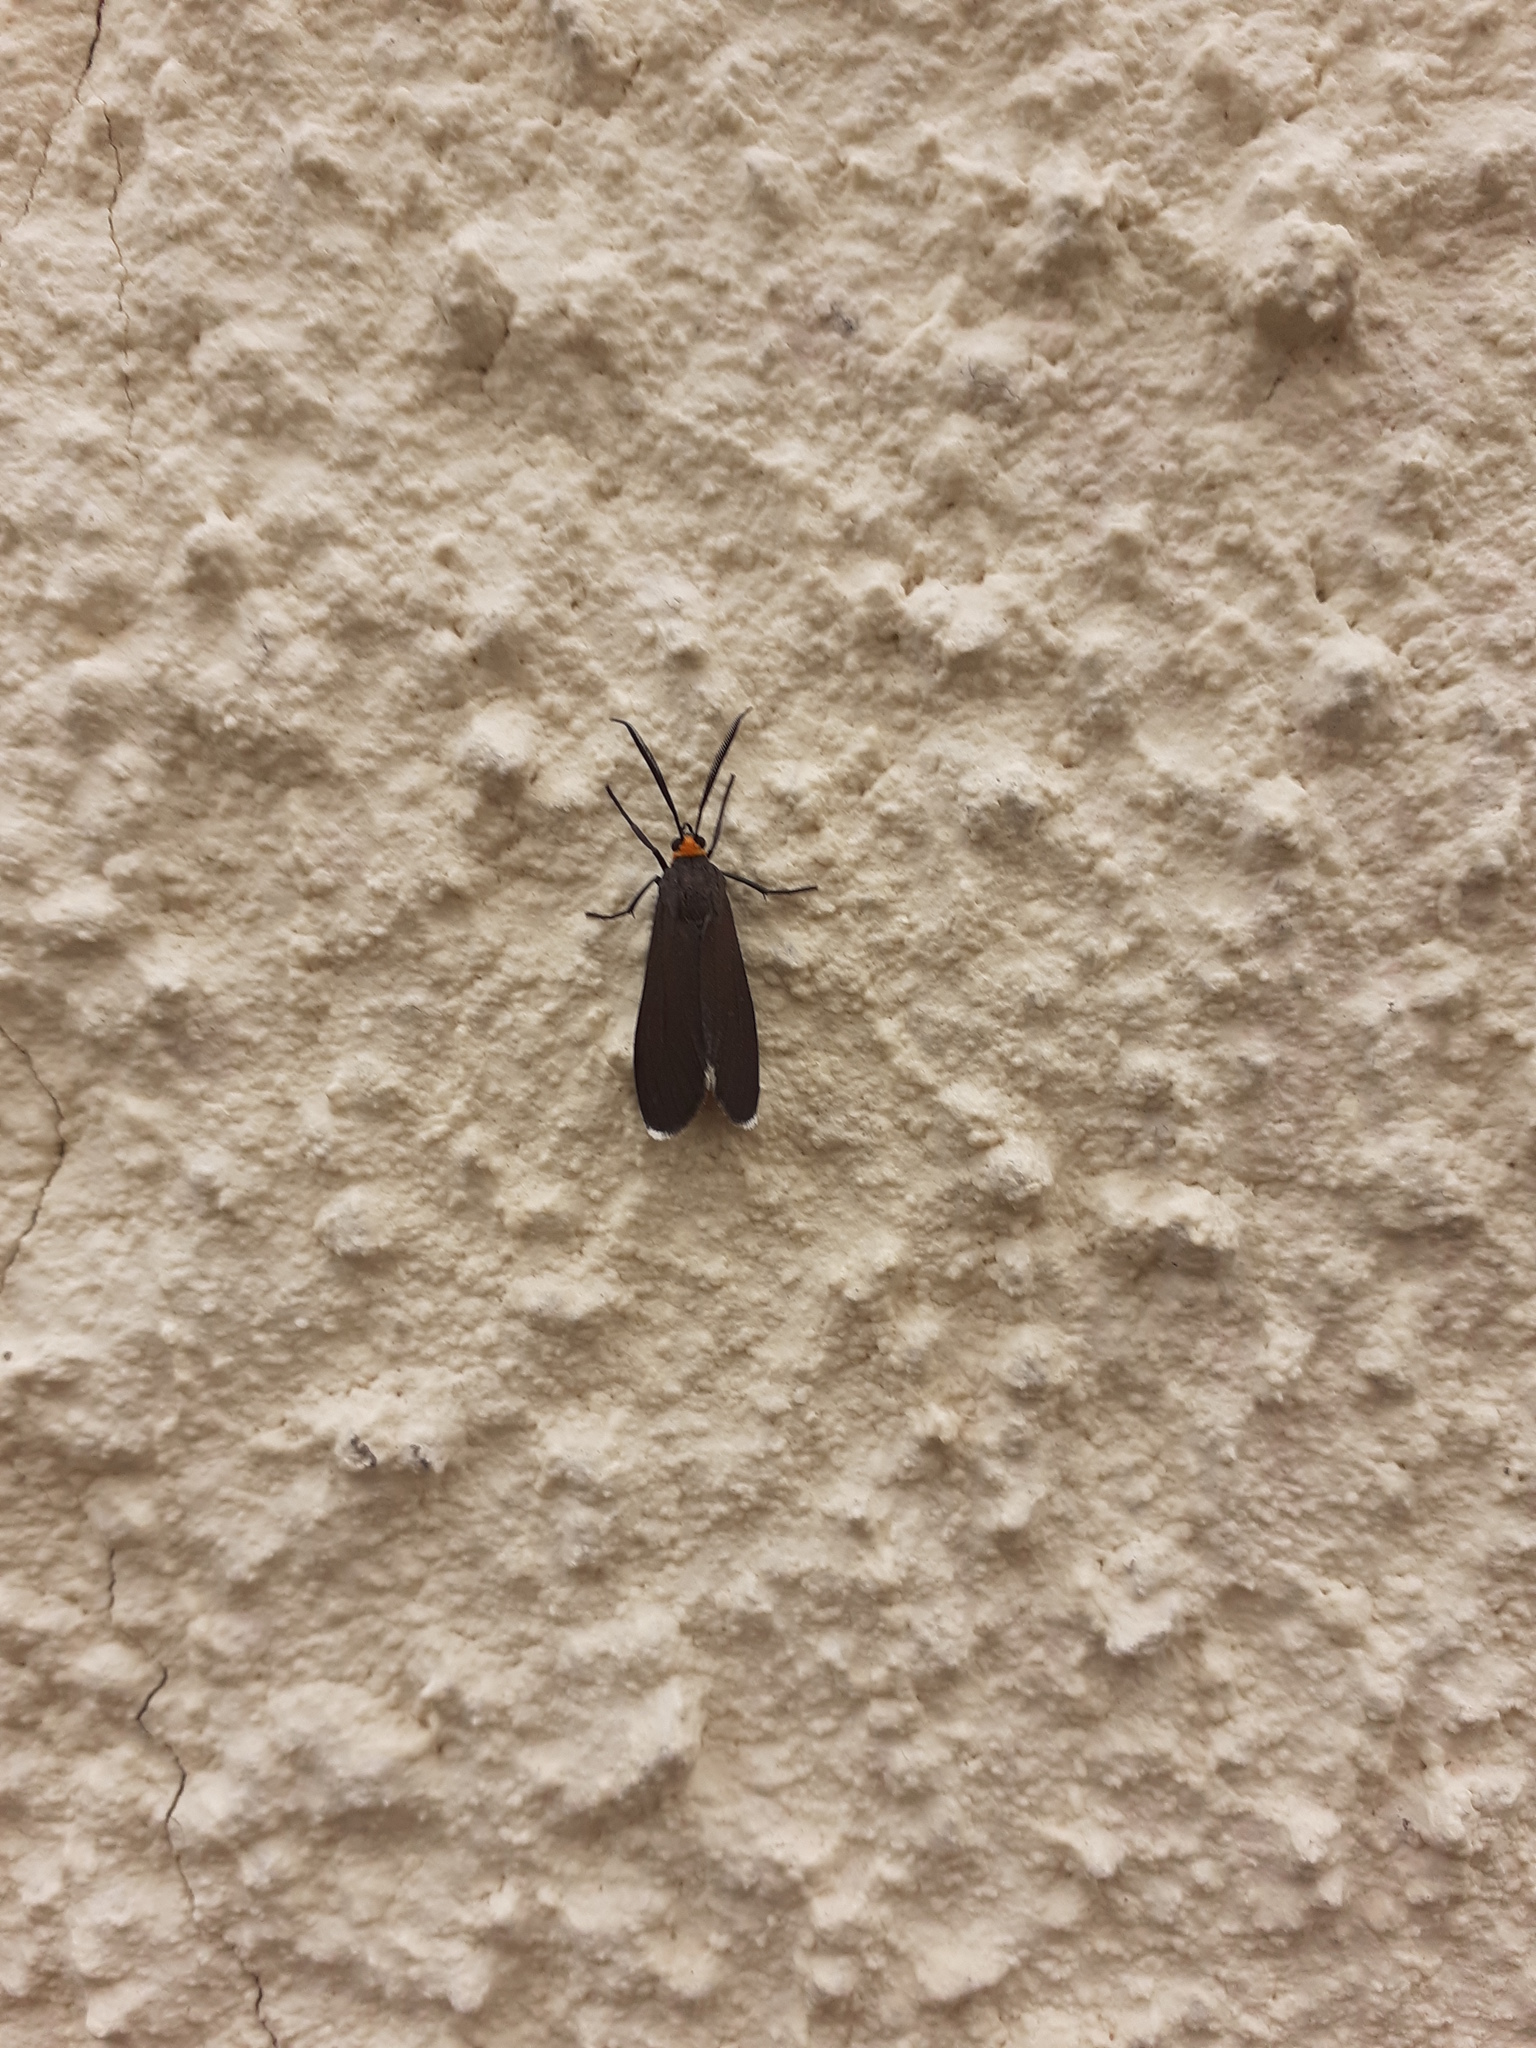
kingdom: Animalia
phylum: Arthropoda
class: Insecta
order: Lepidoptera
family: Erebidae
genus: Ctenucha
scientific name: Ctenucha rubriceps
